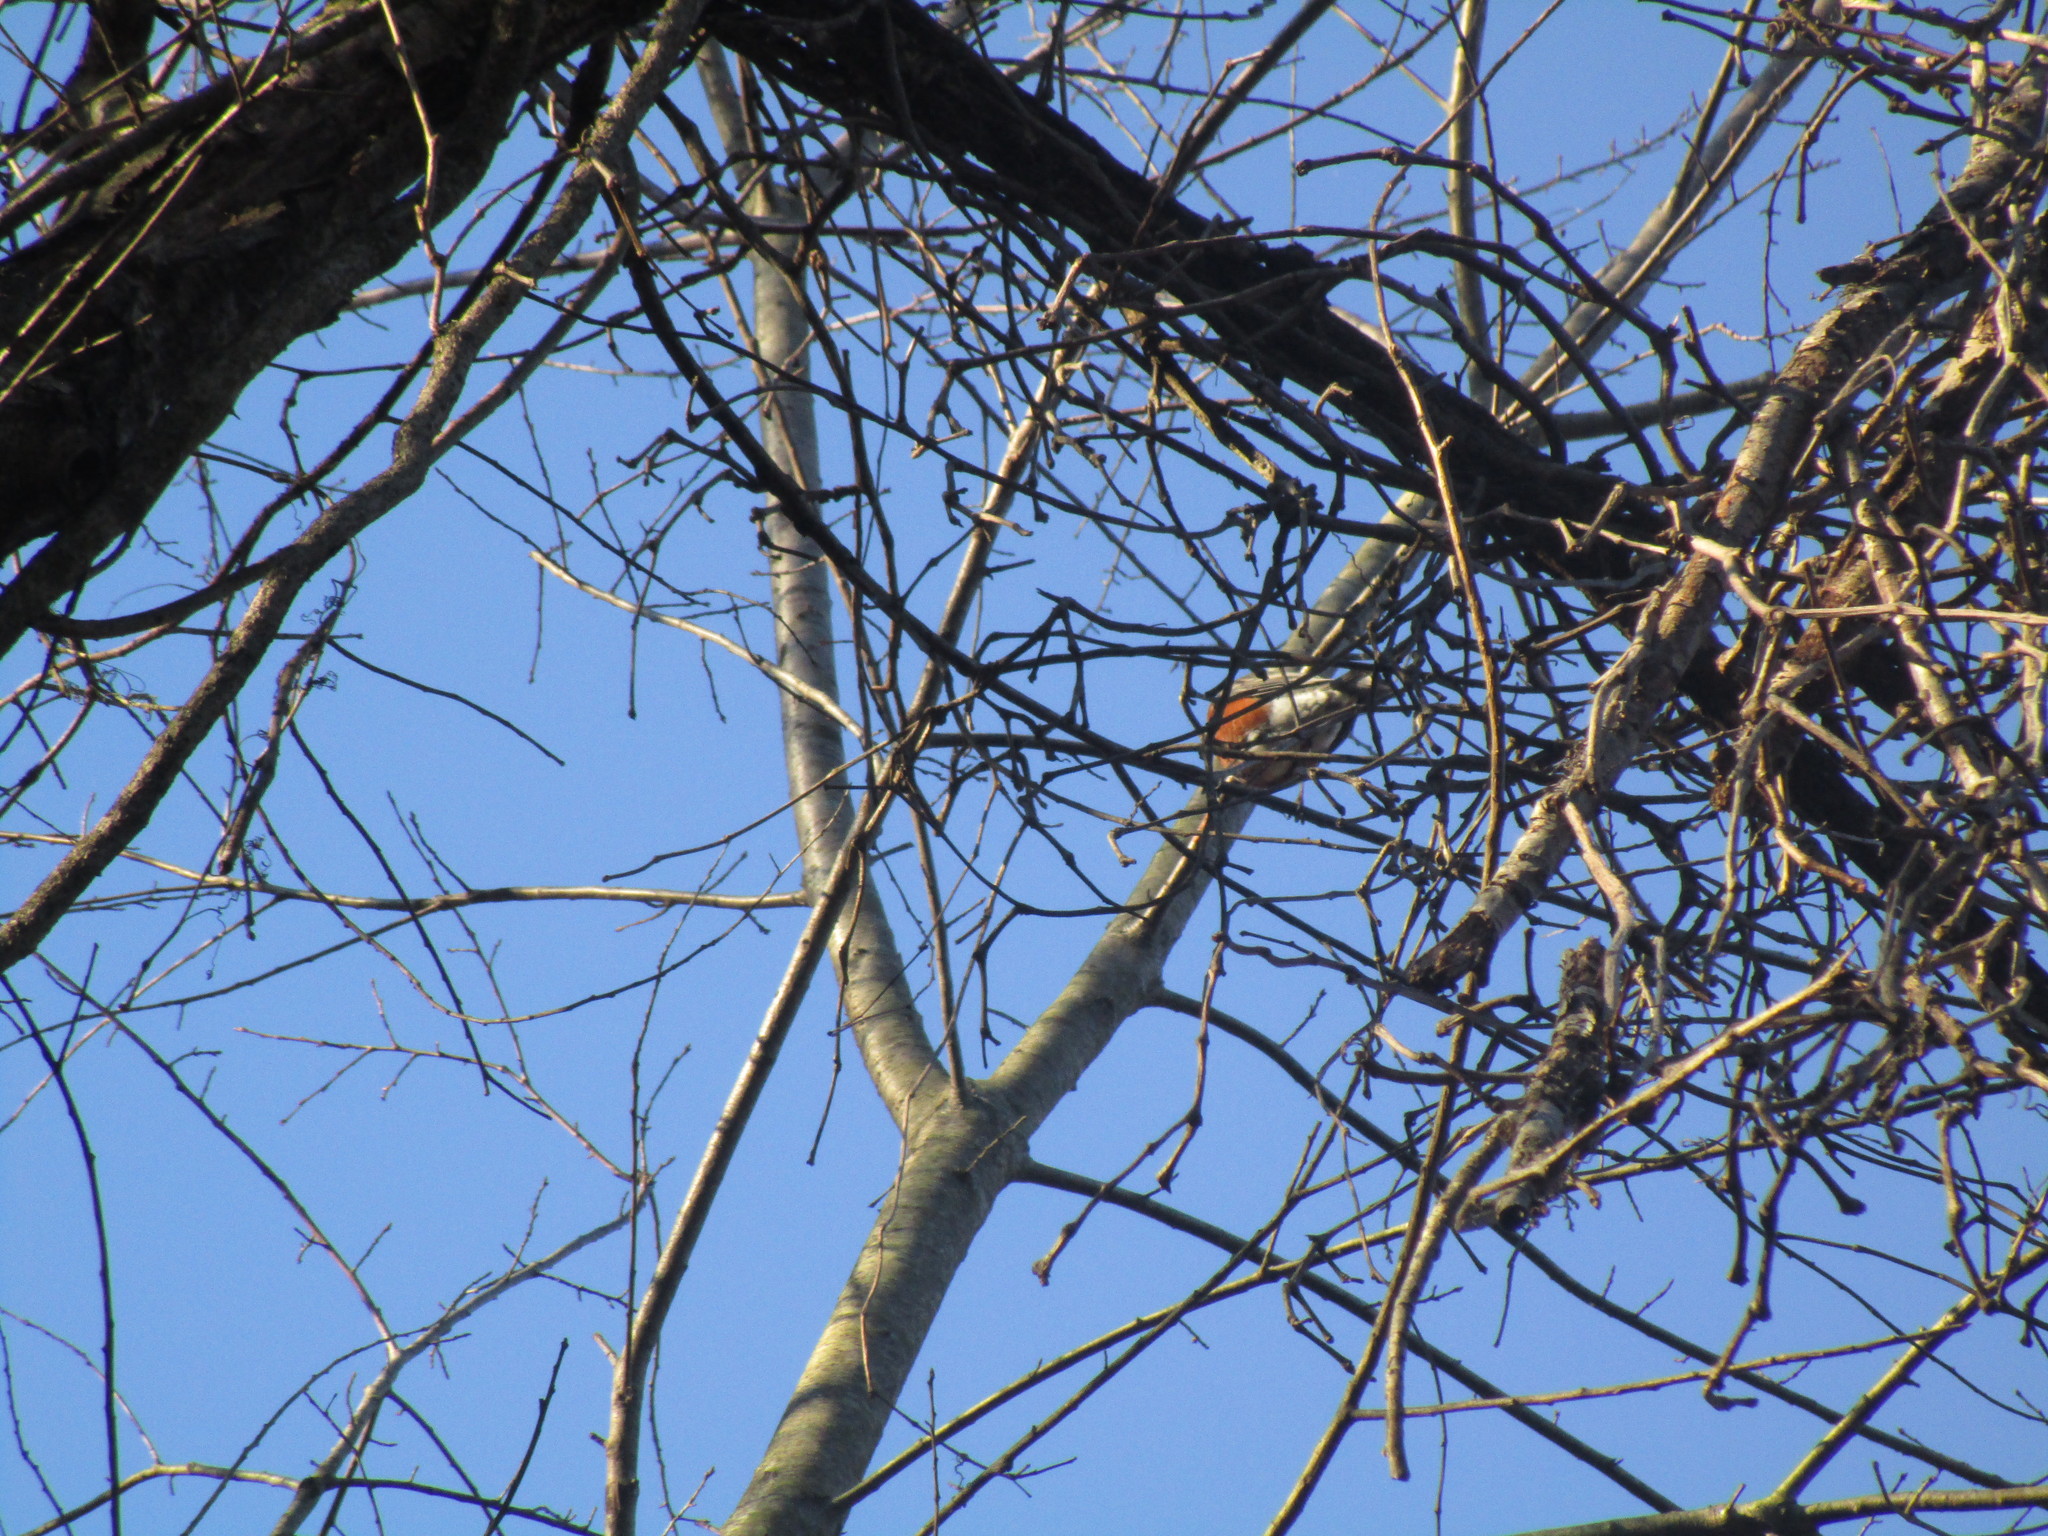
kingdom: Animalia
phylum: Chordata
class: Aves
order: Passeriformes
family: Turdidae
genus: Turdus
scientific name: Turdus migratorius
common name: American robin
